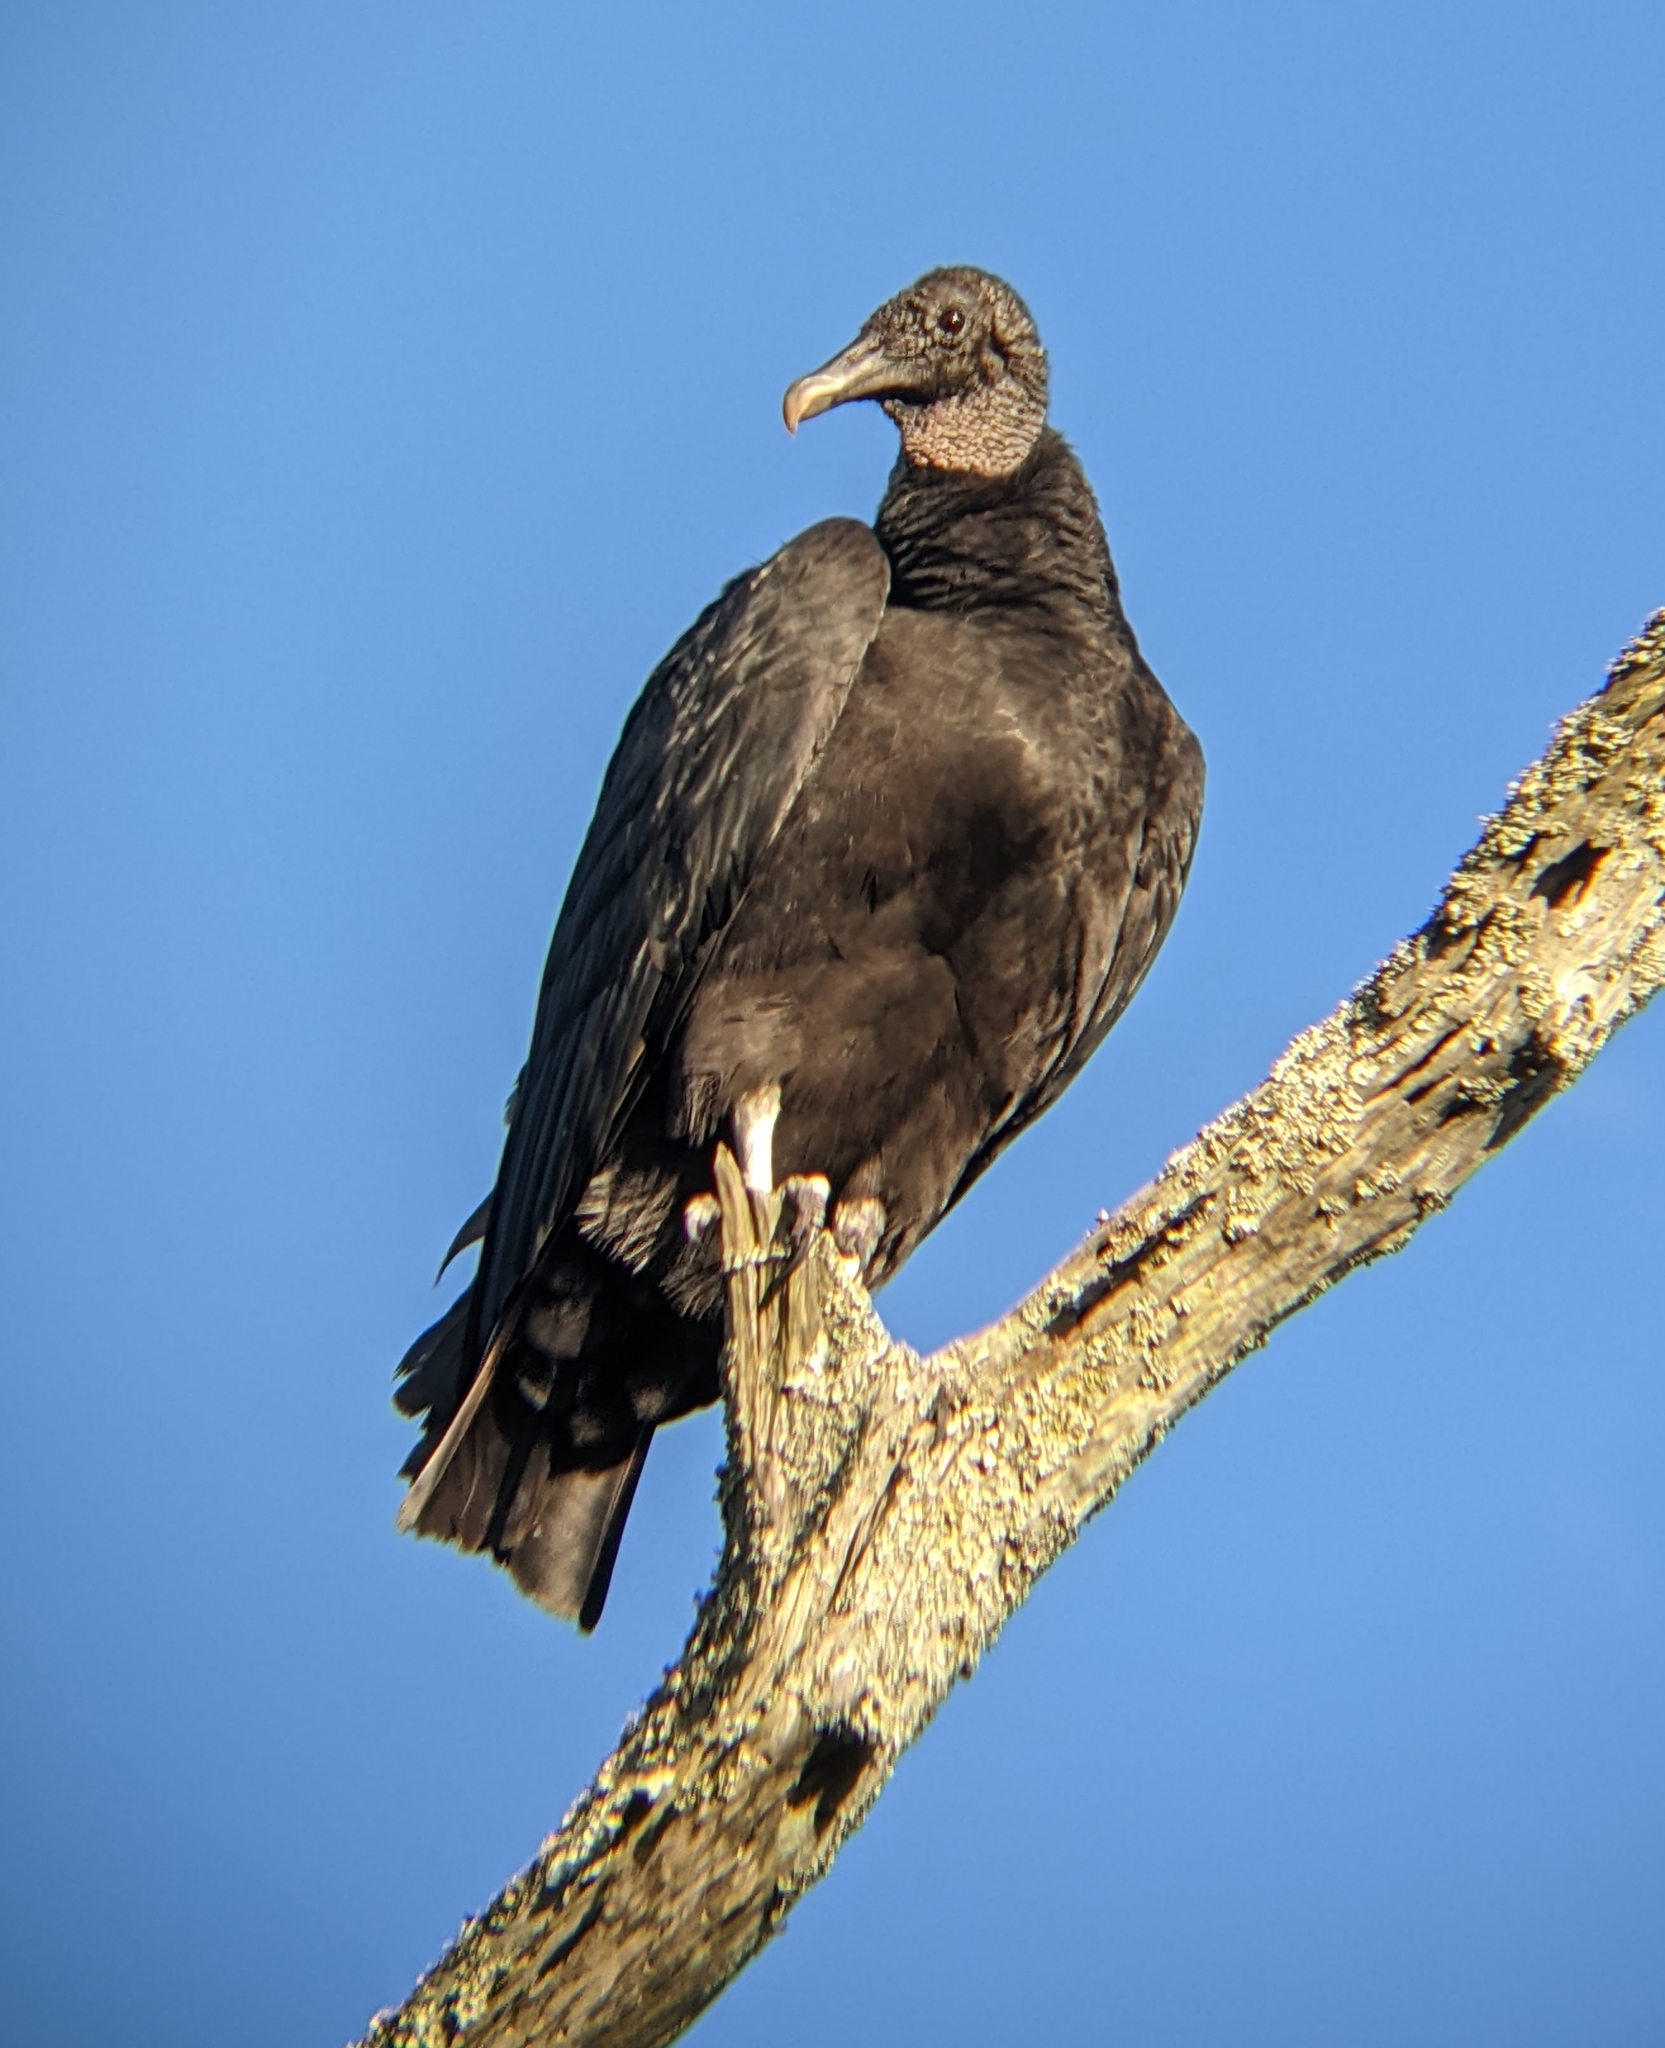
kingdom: Animalia
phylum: Chordata
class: Aves
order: Accipitriformes
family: Cathartidae
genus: Coragyps
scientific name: Coragyps atratus
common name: Black vulture
